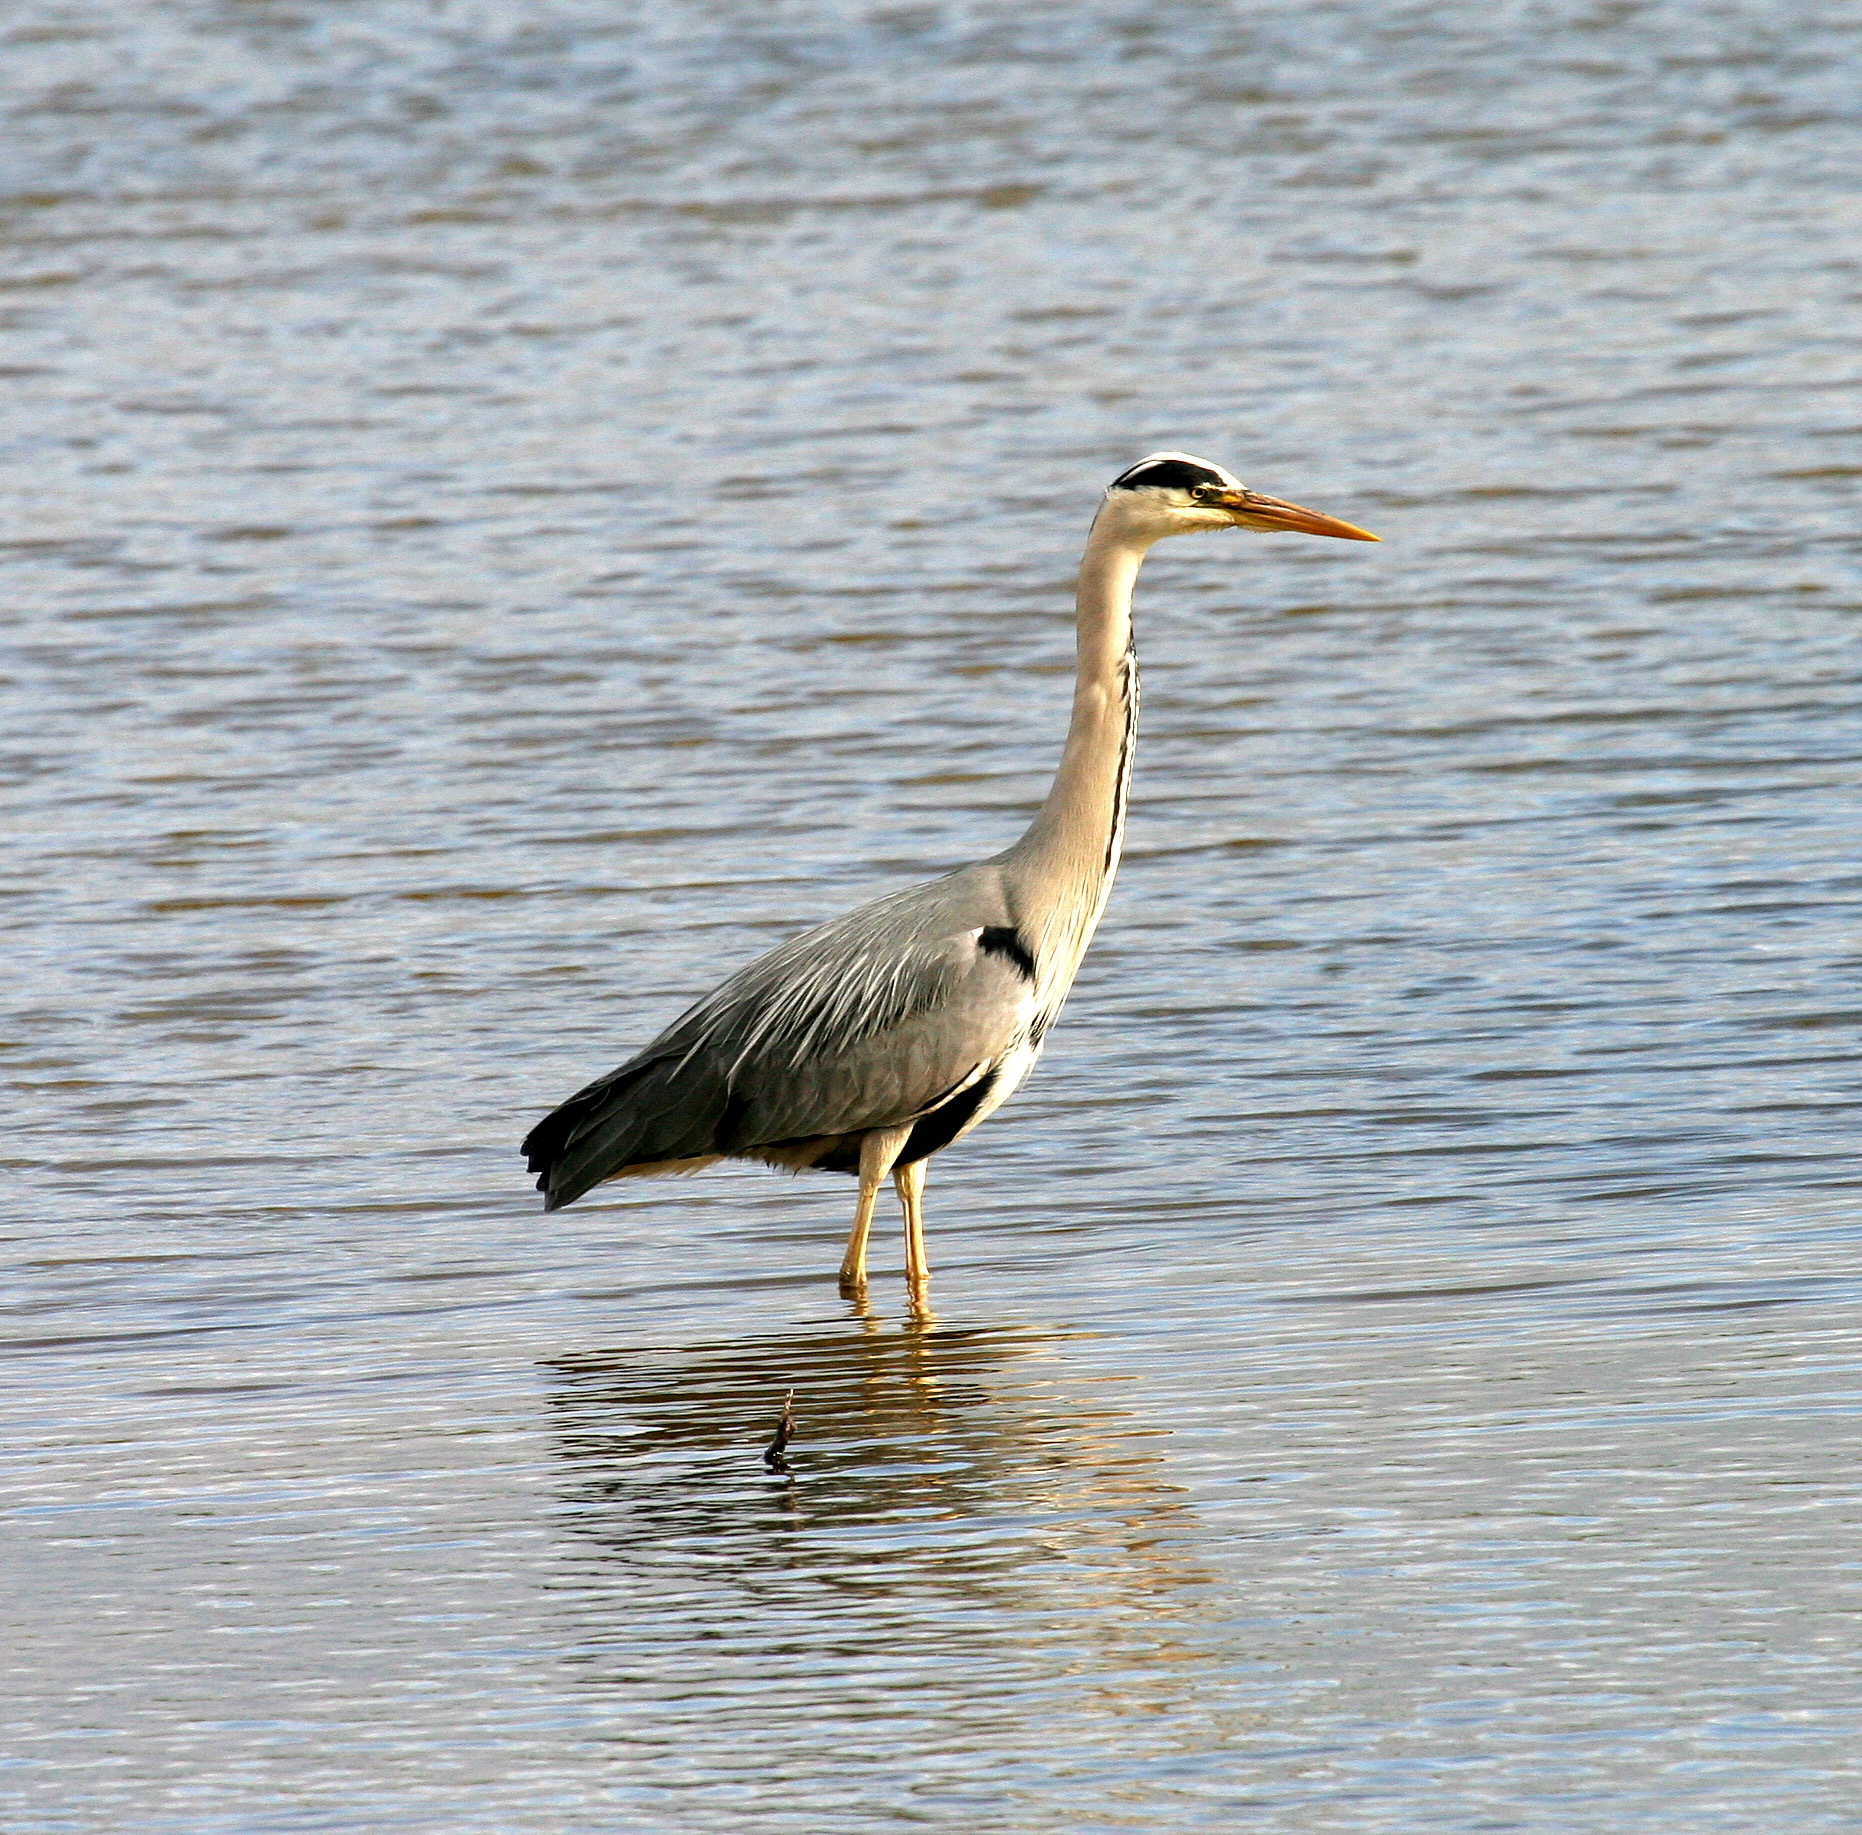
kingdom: Animalia
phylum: Chordata
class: Aves
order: Pelecaniformes
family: Ardeidae
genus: Ardea
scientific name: Ardea cinerea
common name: Grey heron
